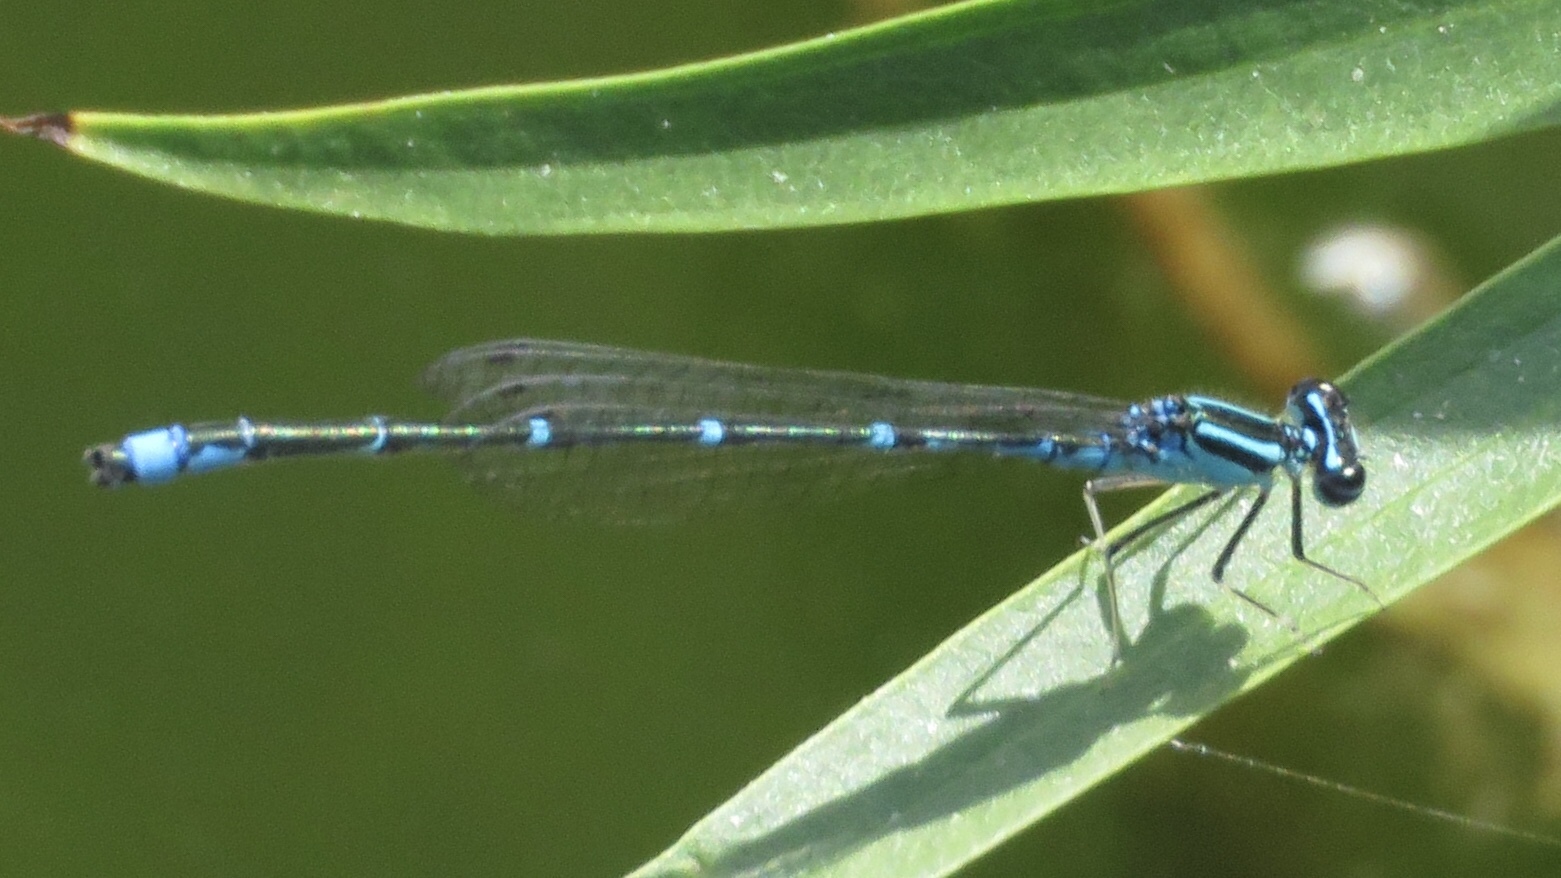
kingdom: Animalia
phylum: Arthropoda
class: Insecta
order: Odonata
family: Coenagrionidae
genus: Enallagma
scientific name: Enallagma exsulans
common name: Stream bluet
